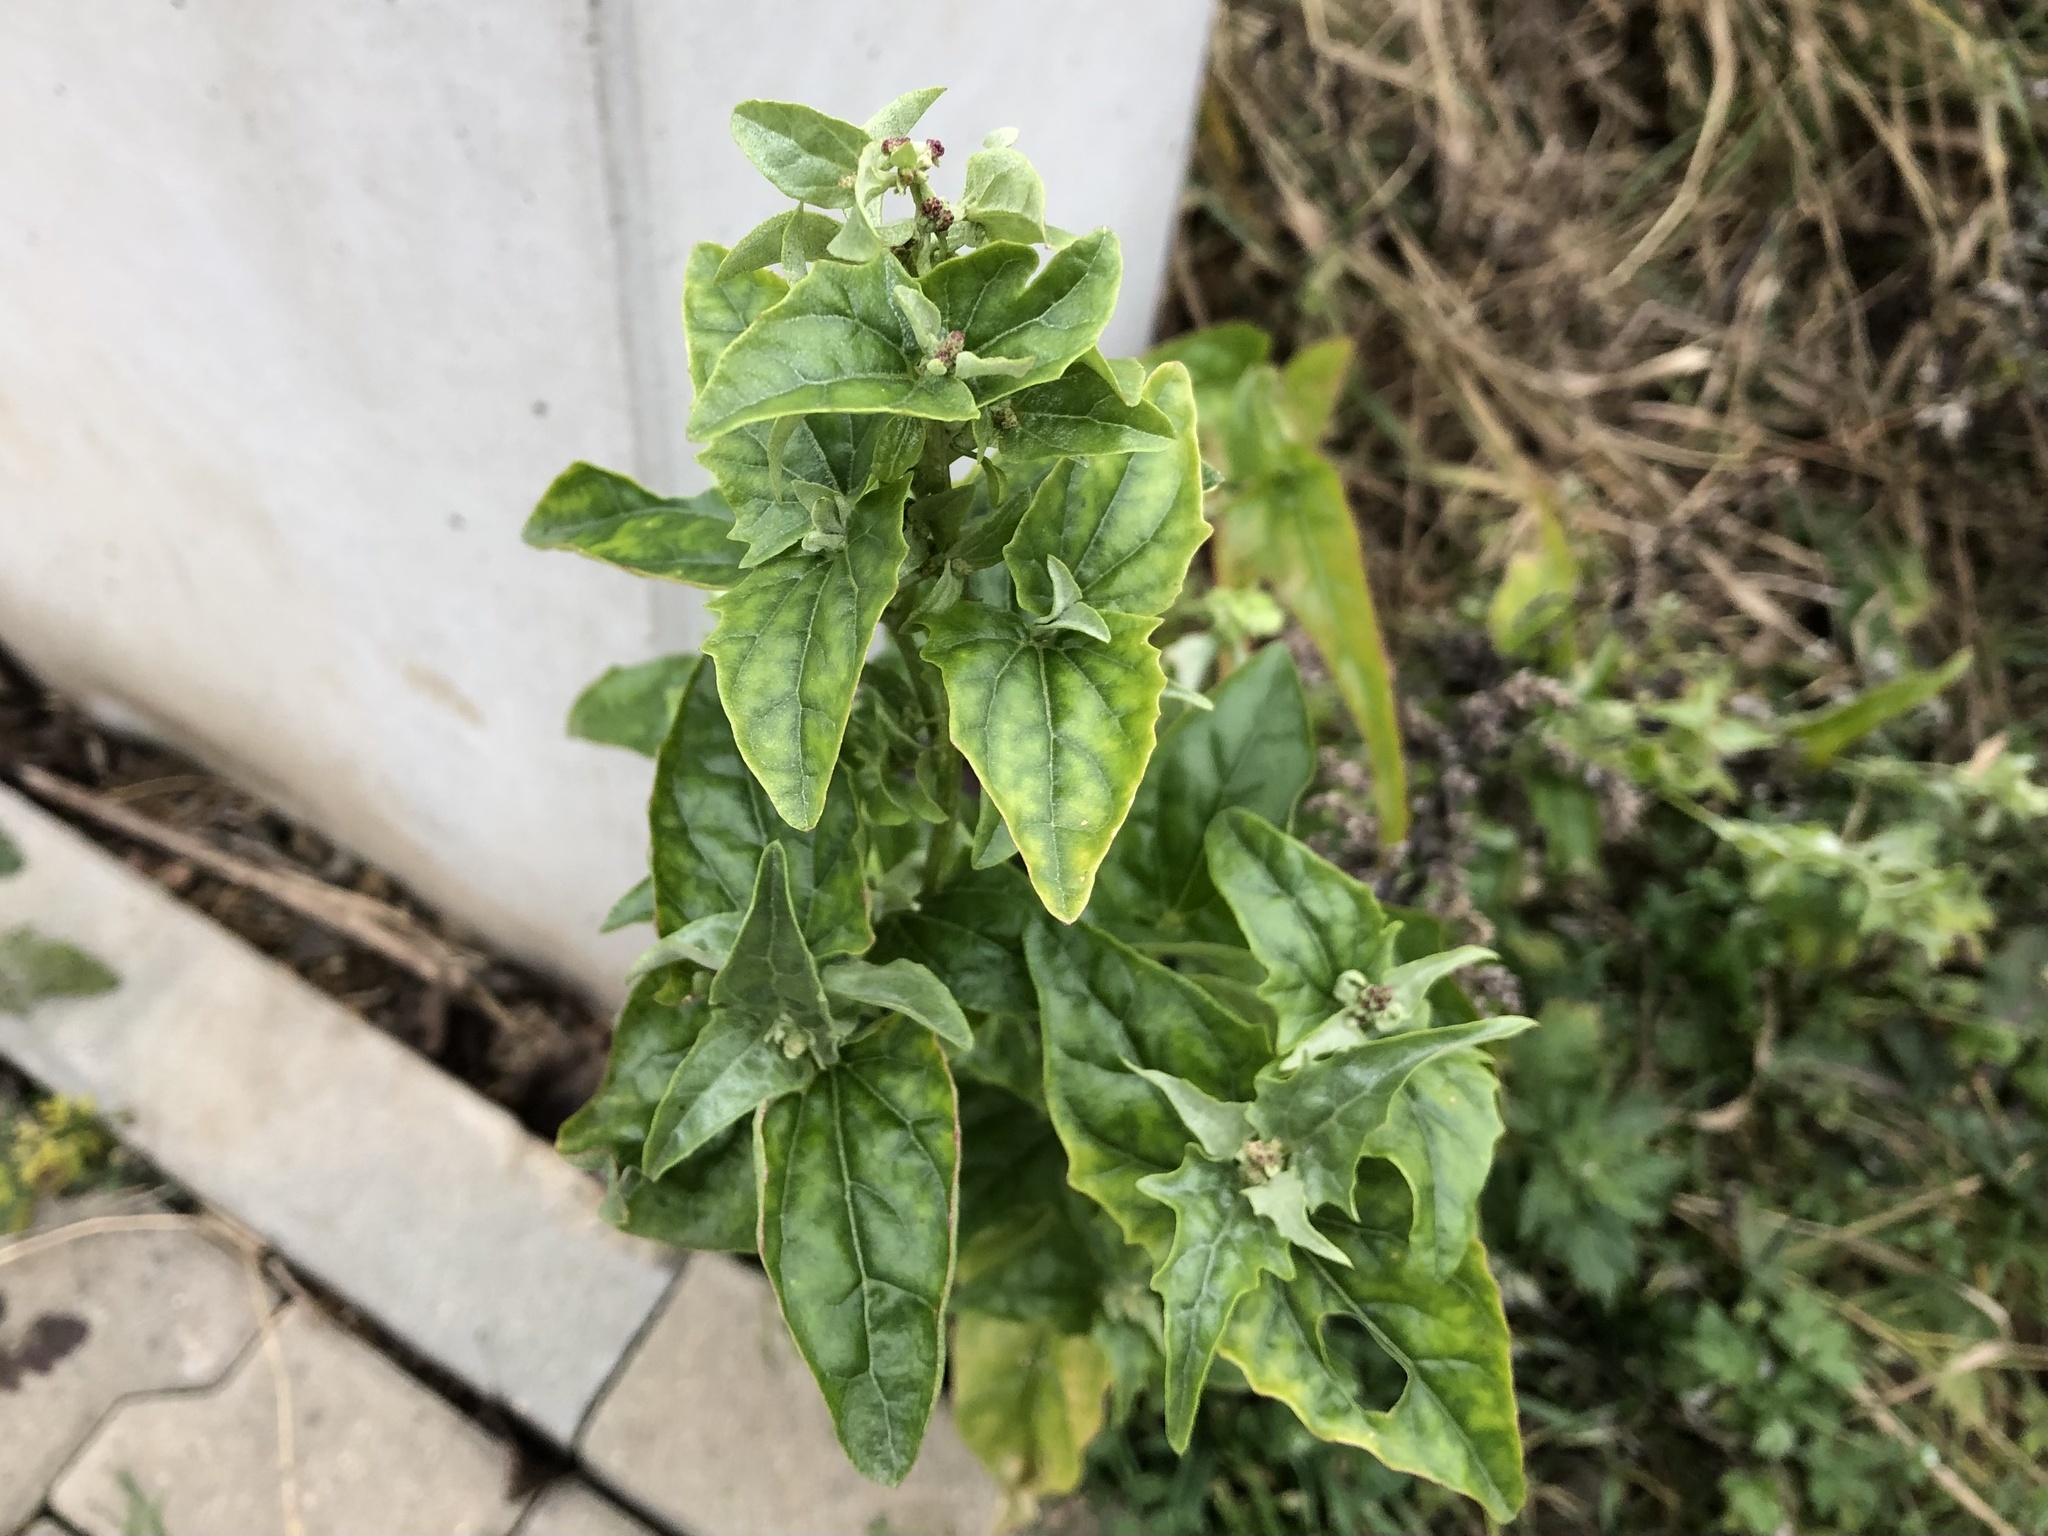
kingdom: Plantae
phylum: Tracheophyta
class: Magnoliopsida
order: Caryophyllales
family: Amaranthaceae
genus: Atriplex
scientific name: Atriplex sagittata
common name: Purple orache
